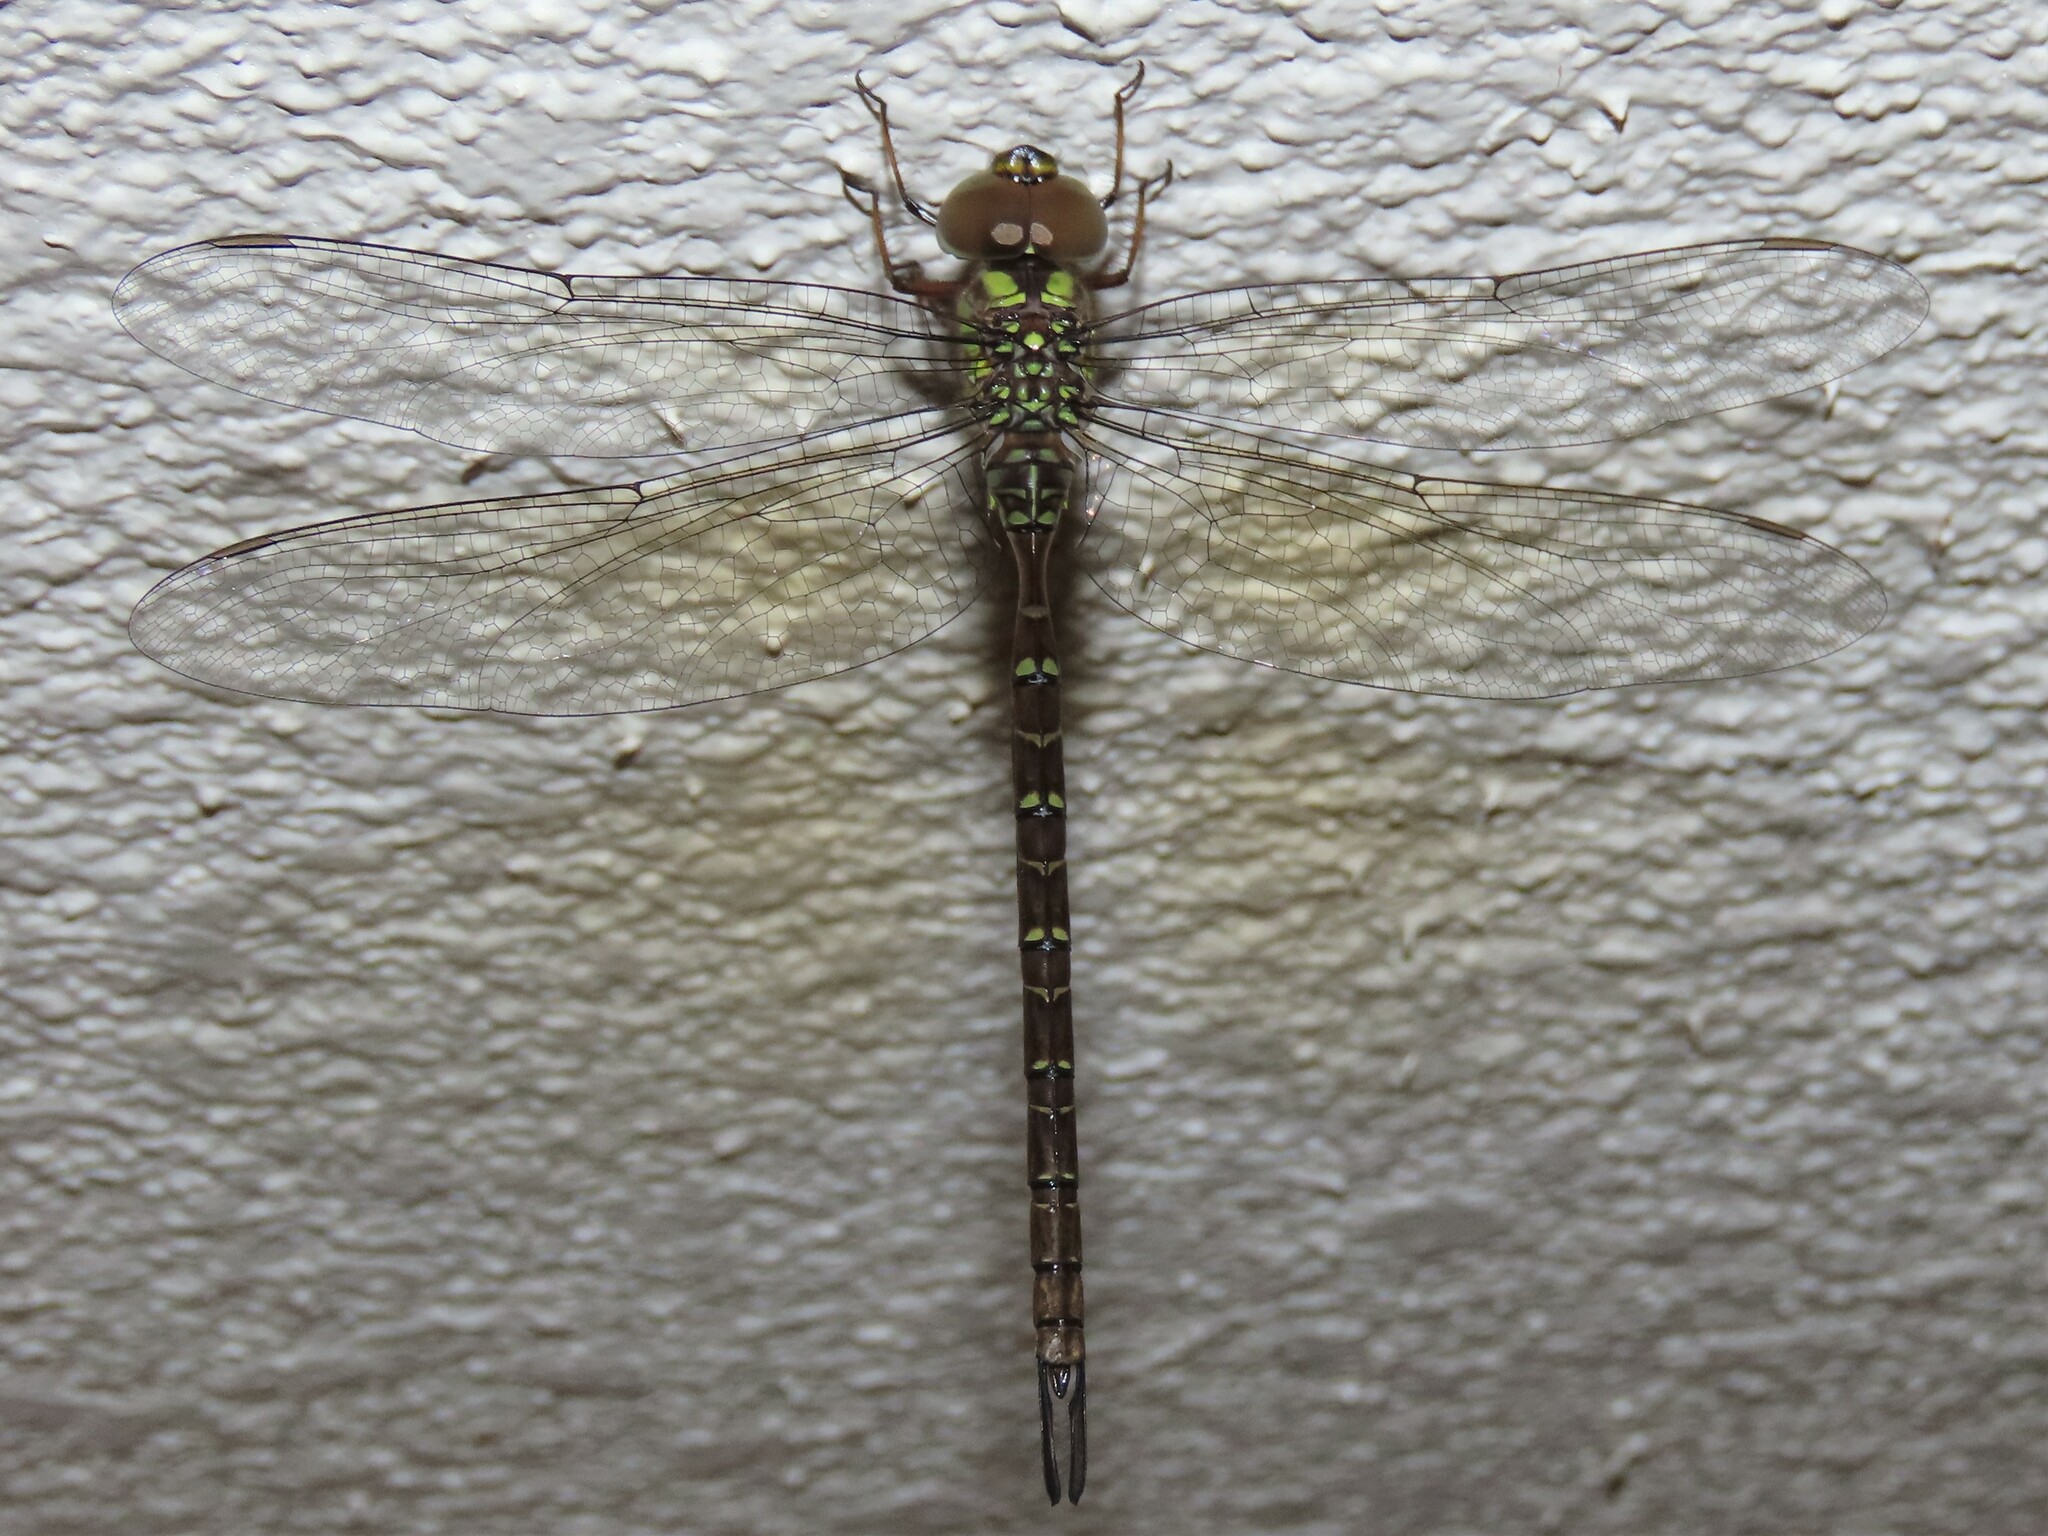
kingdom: Animalia
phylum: Arthropoda
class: Insecta
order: Odonata
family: Aeshnidae
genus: Triacanthagyna
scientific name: Triacanthagyna trifida
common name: Phantom darner
